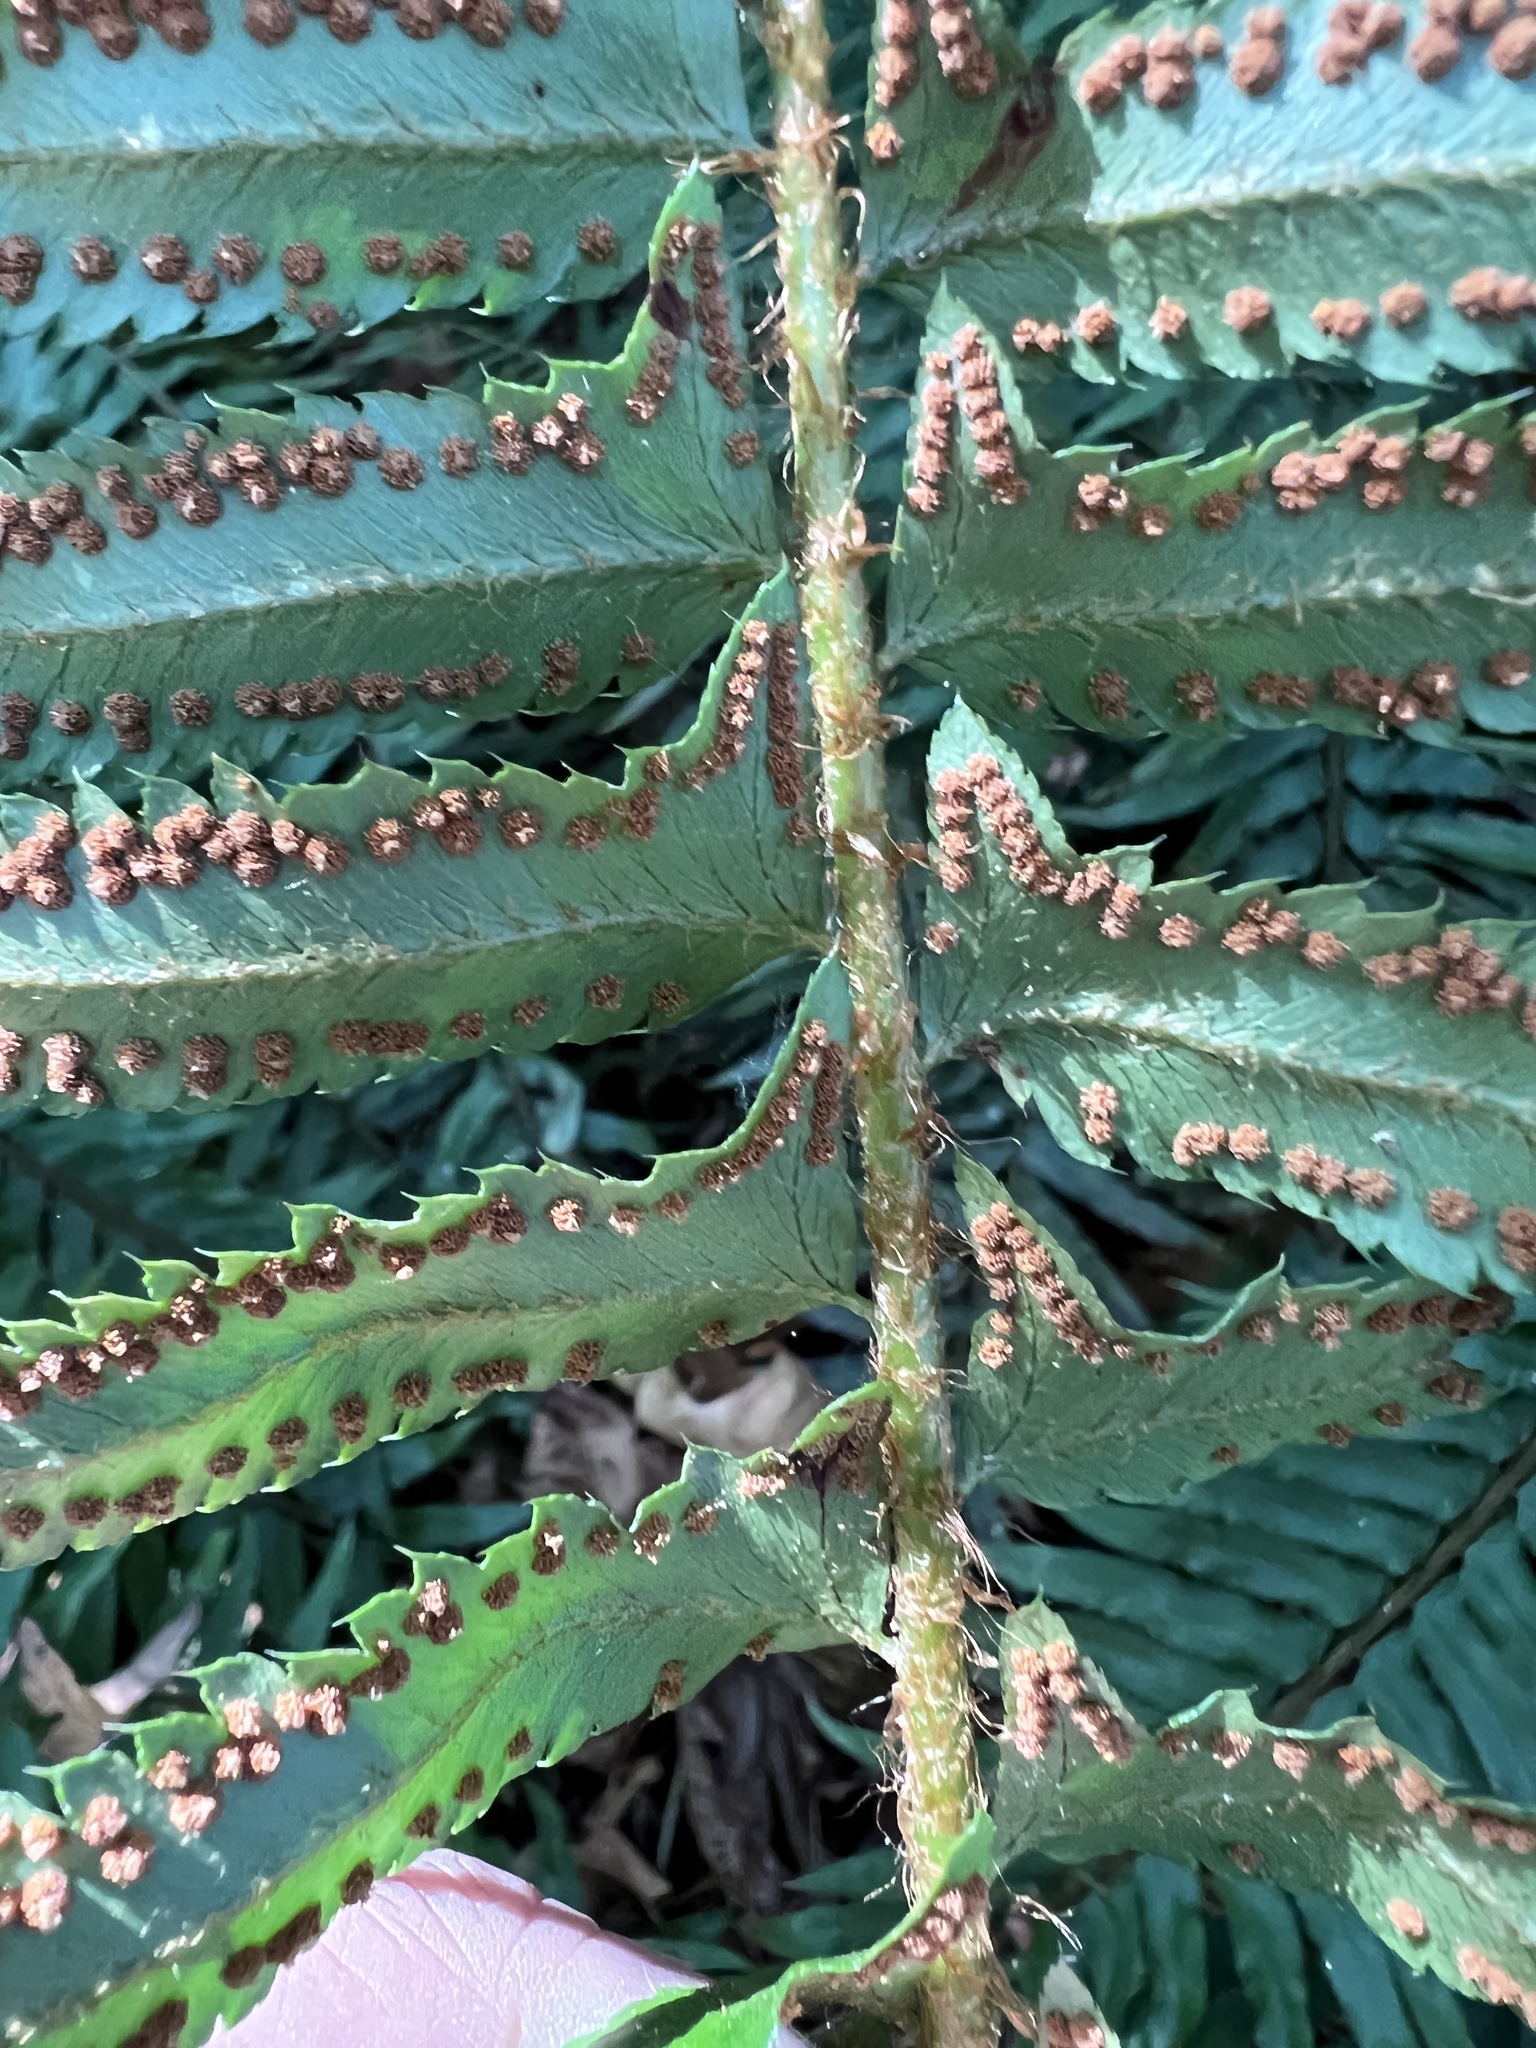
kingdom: Plantae
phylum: Tracheophyta
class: Polypodiopsida
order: Polypodiales
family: Dryopteridaceae
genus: Polystichum
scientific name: Polystichum munitum
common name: Western sword-fern
